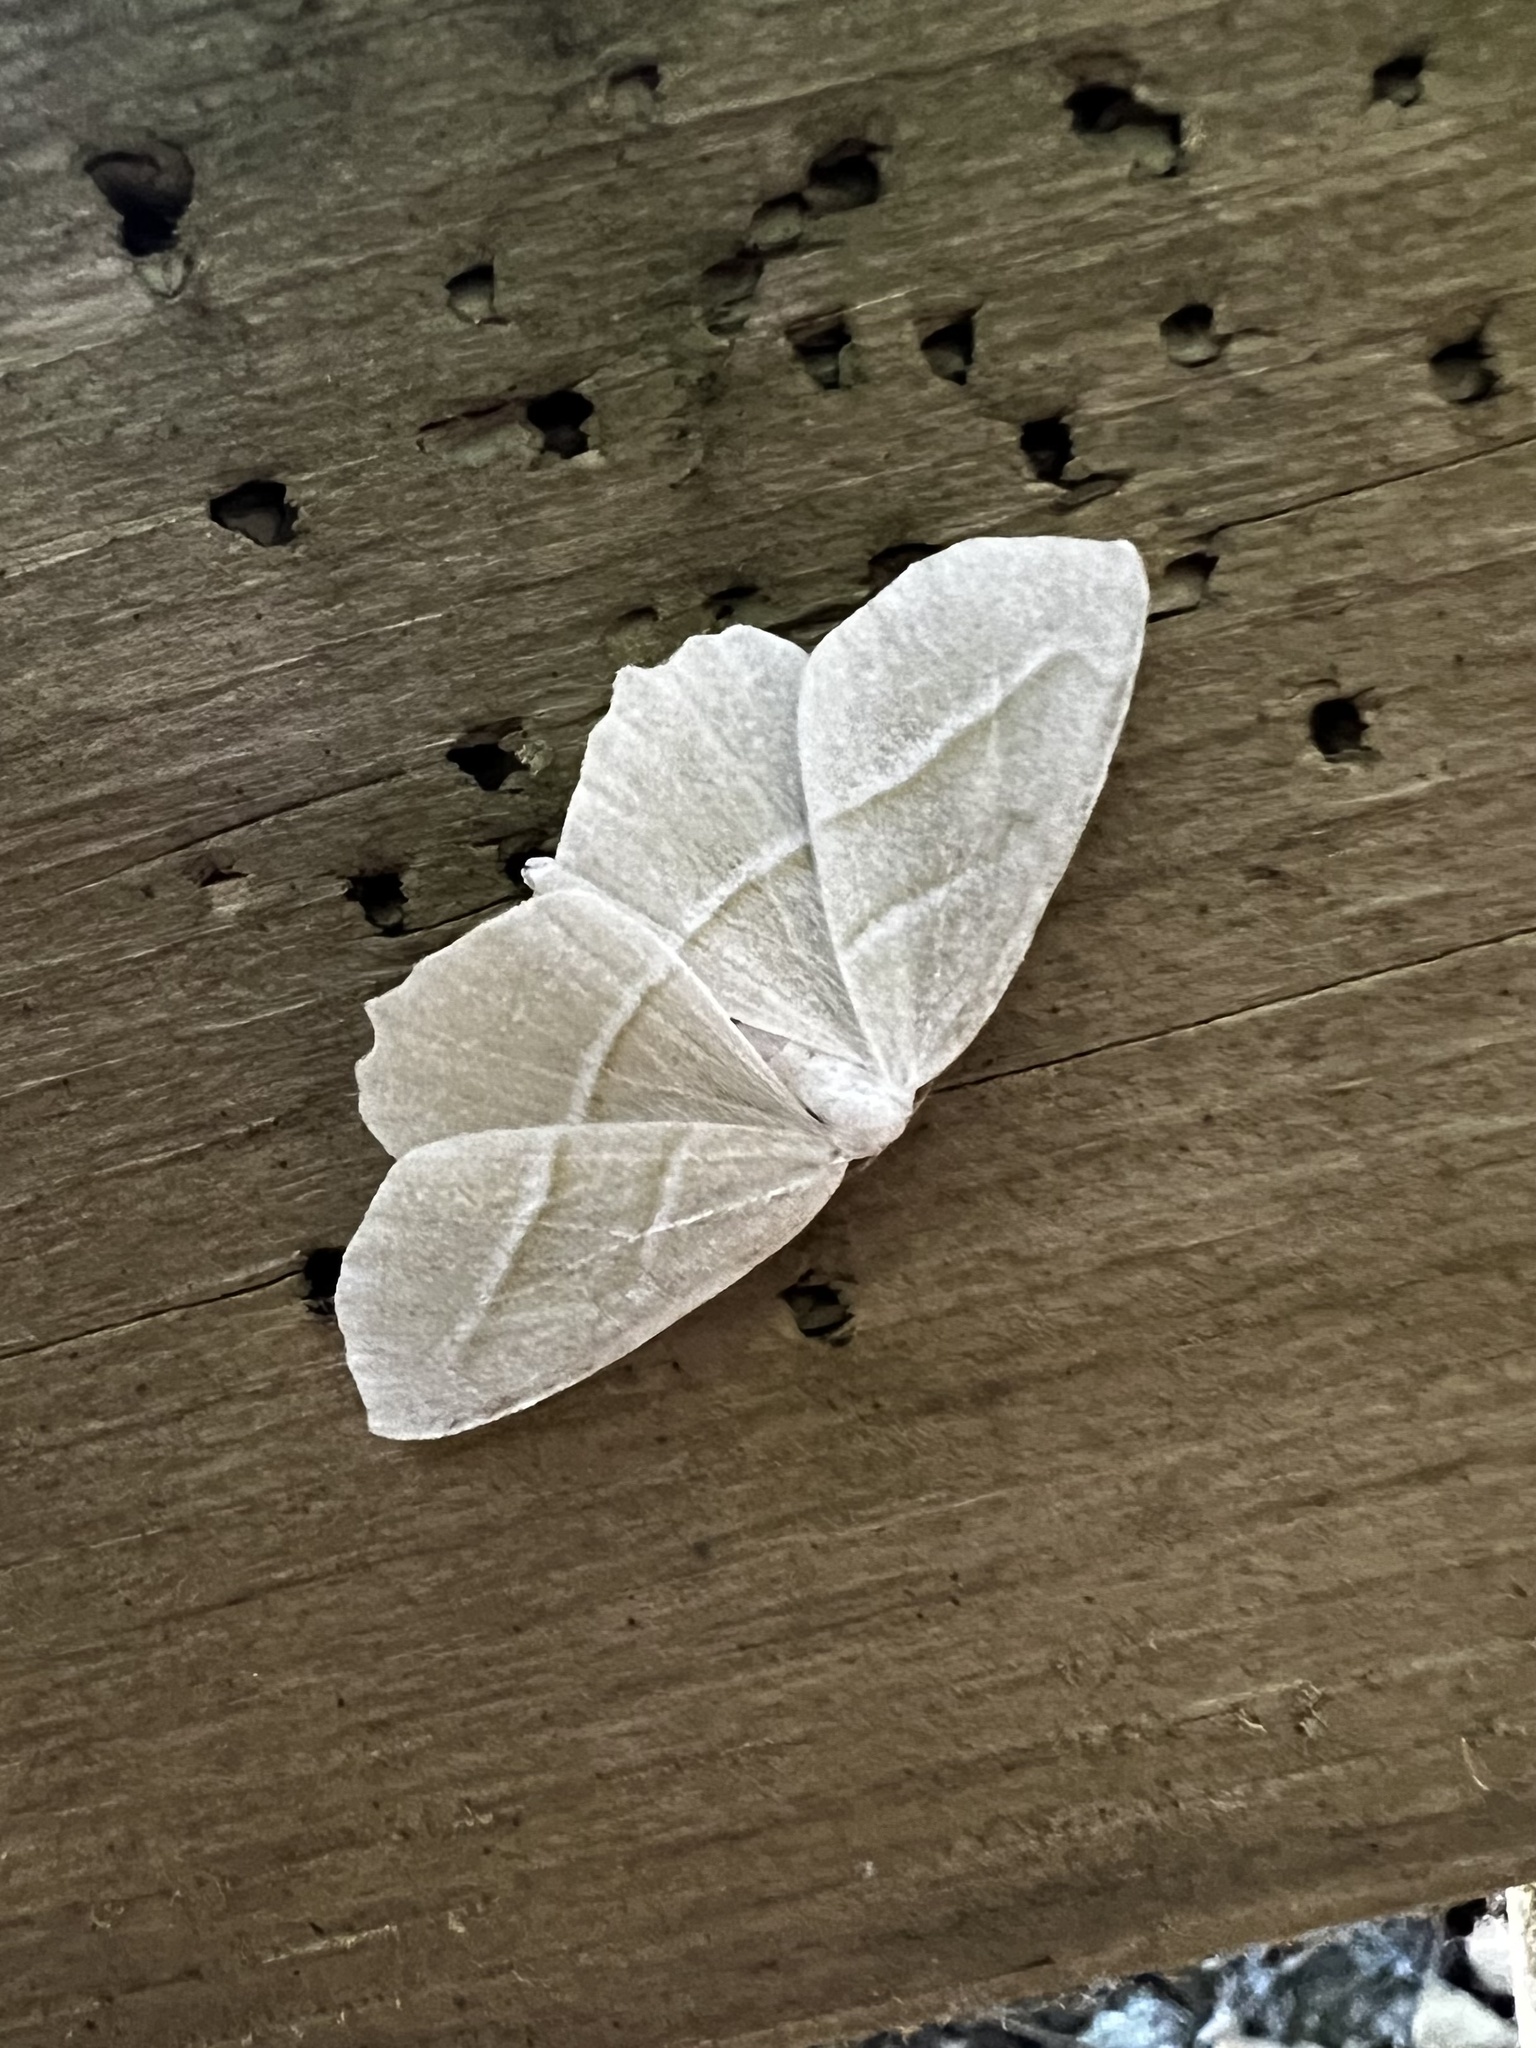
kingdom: Animalia
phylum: Arthropoda
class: Insecta
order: Lepidoptera
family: Geometridae
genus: Campaea
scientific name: Campaea perlata
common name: Fringed looper
